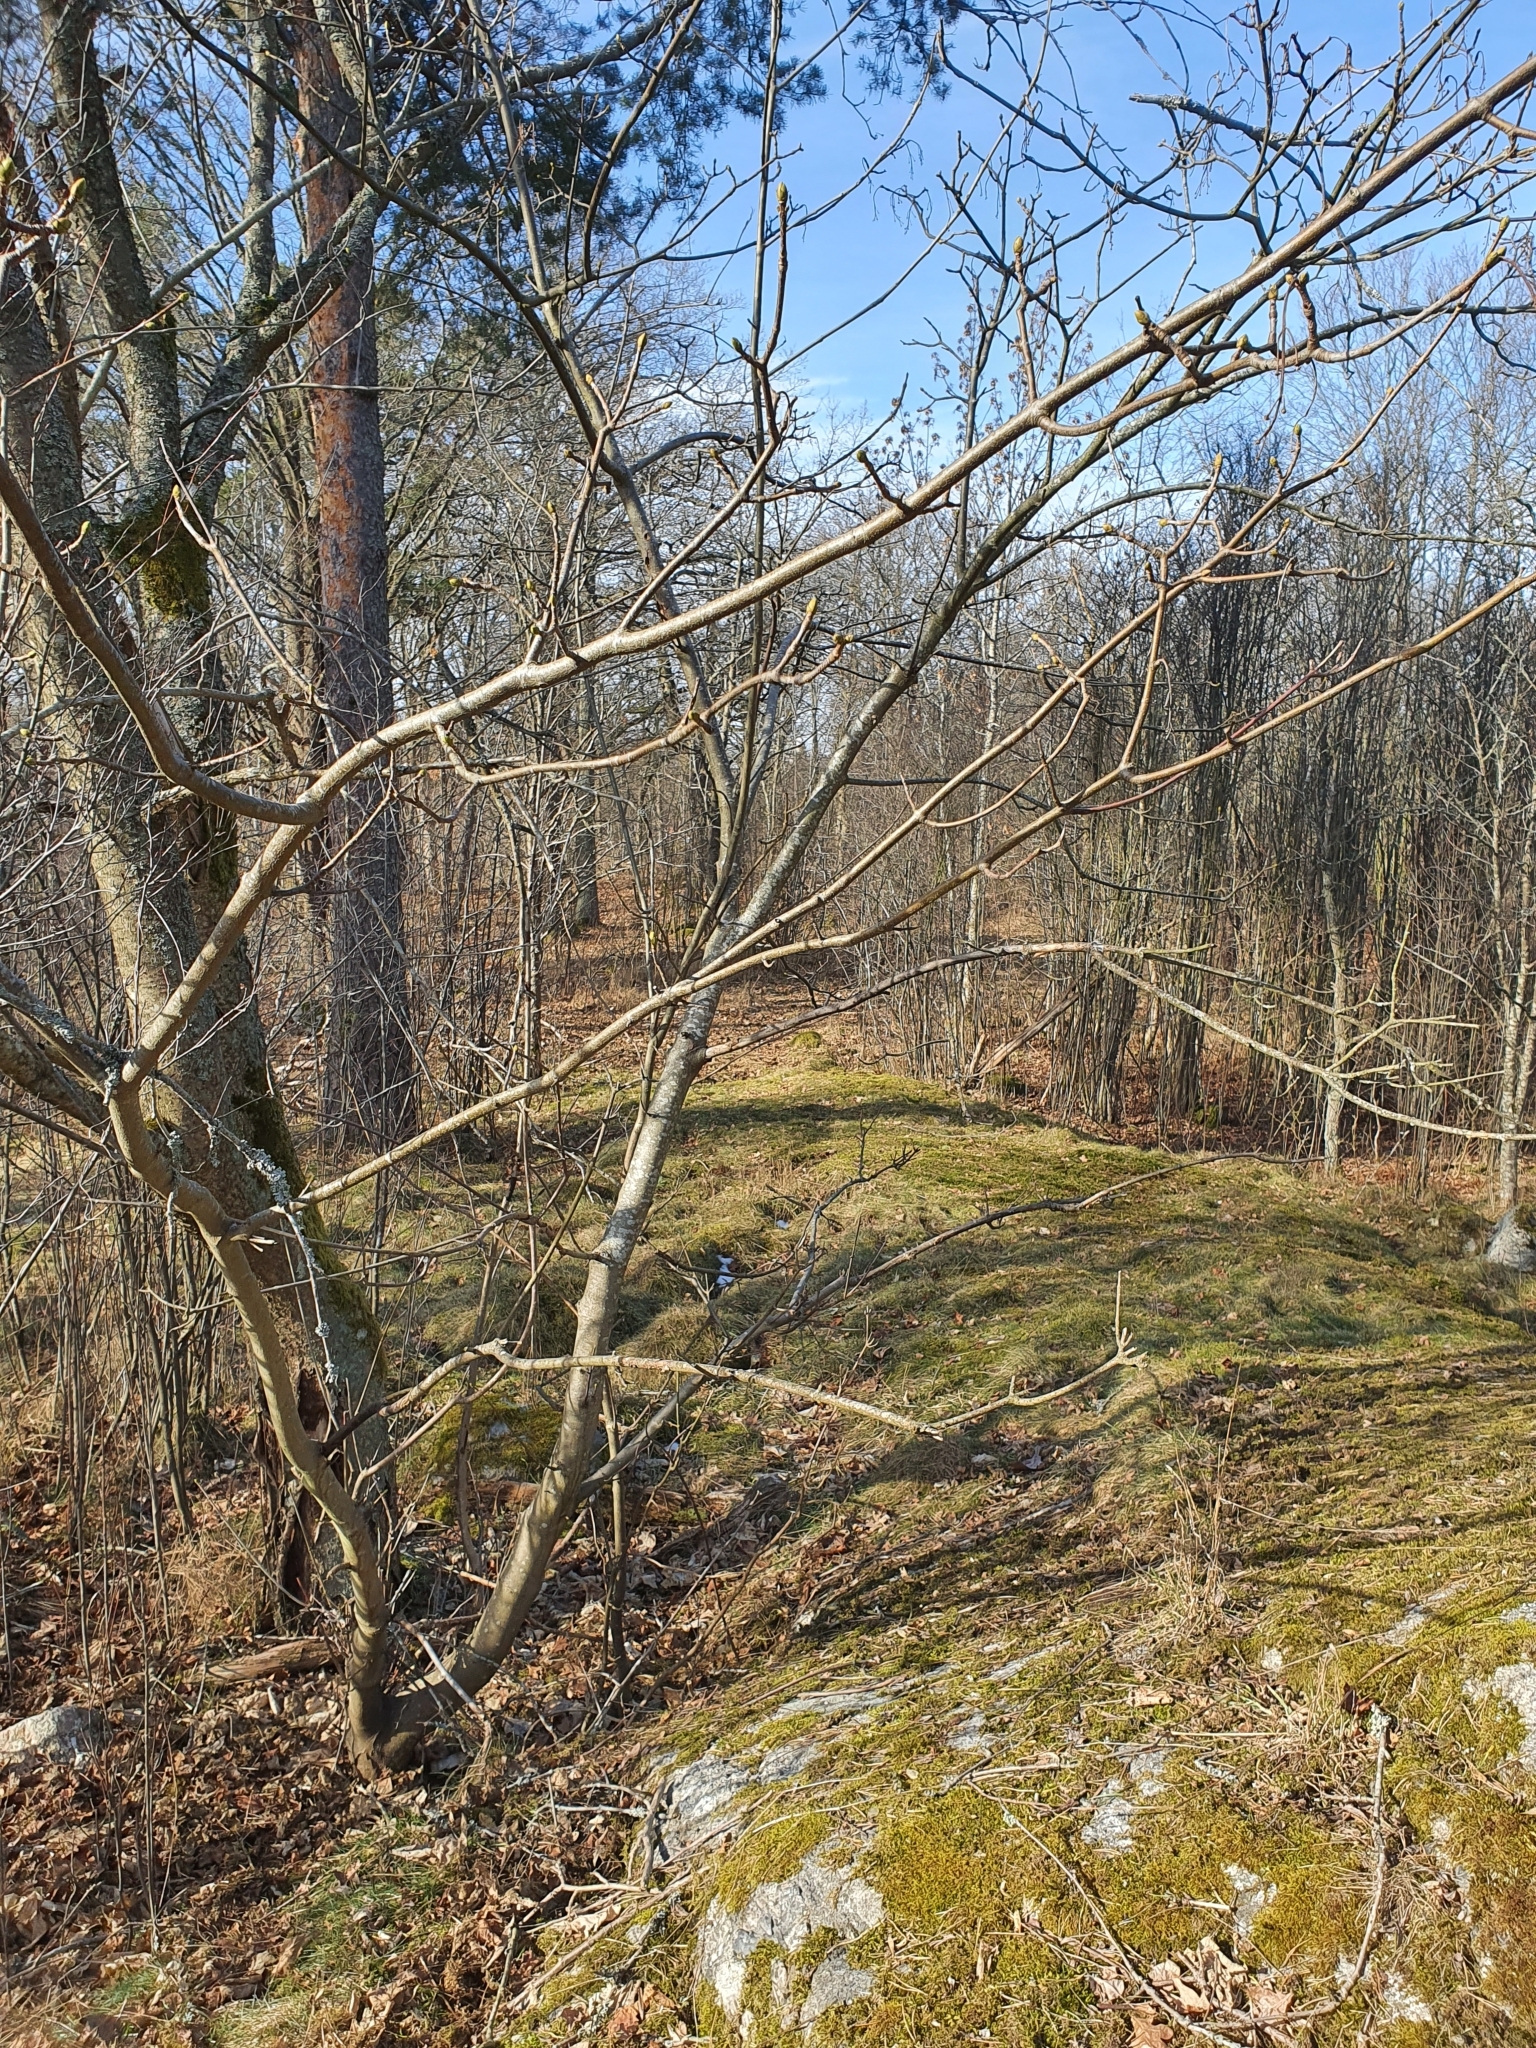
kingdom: Plantae
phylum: Tracheophyta
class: Magnoliopsida
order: Sapindales
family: Sapindaceae
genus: Acer
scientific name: Acer pseudoplatanus
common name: Sycamore
